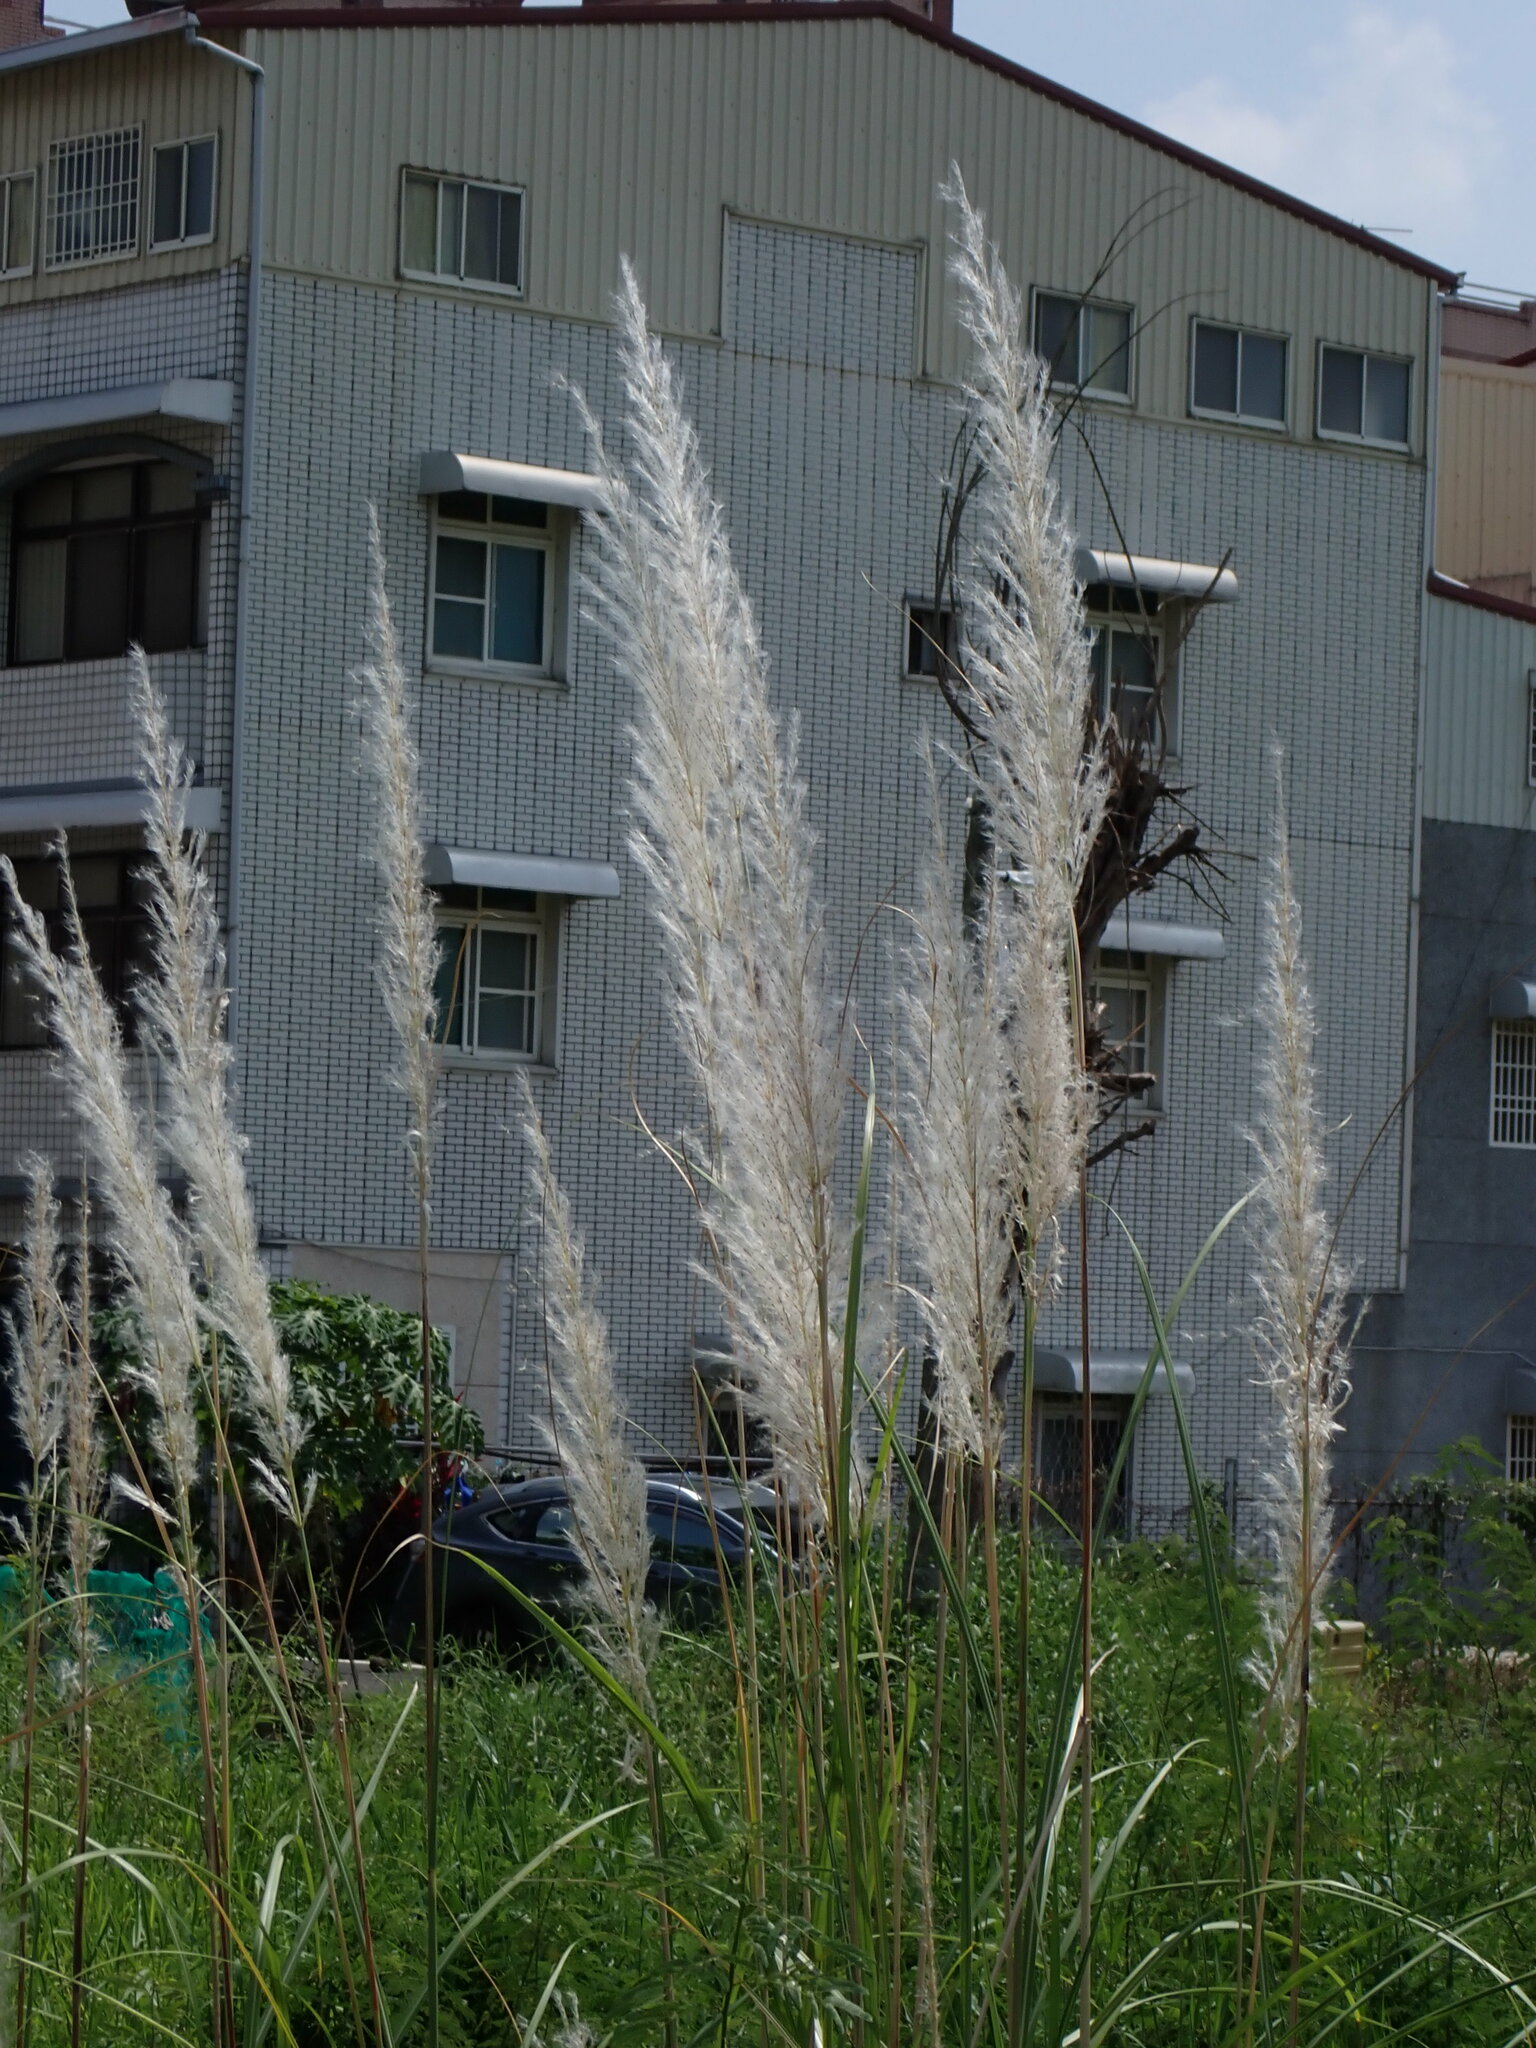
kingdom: Plantae
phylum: Tracheophyta
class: Liliopsida
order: Poales
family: Poaceae
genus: Saccharum
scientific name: Saccharum spontaneum
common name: Wild sugarcane
